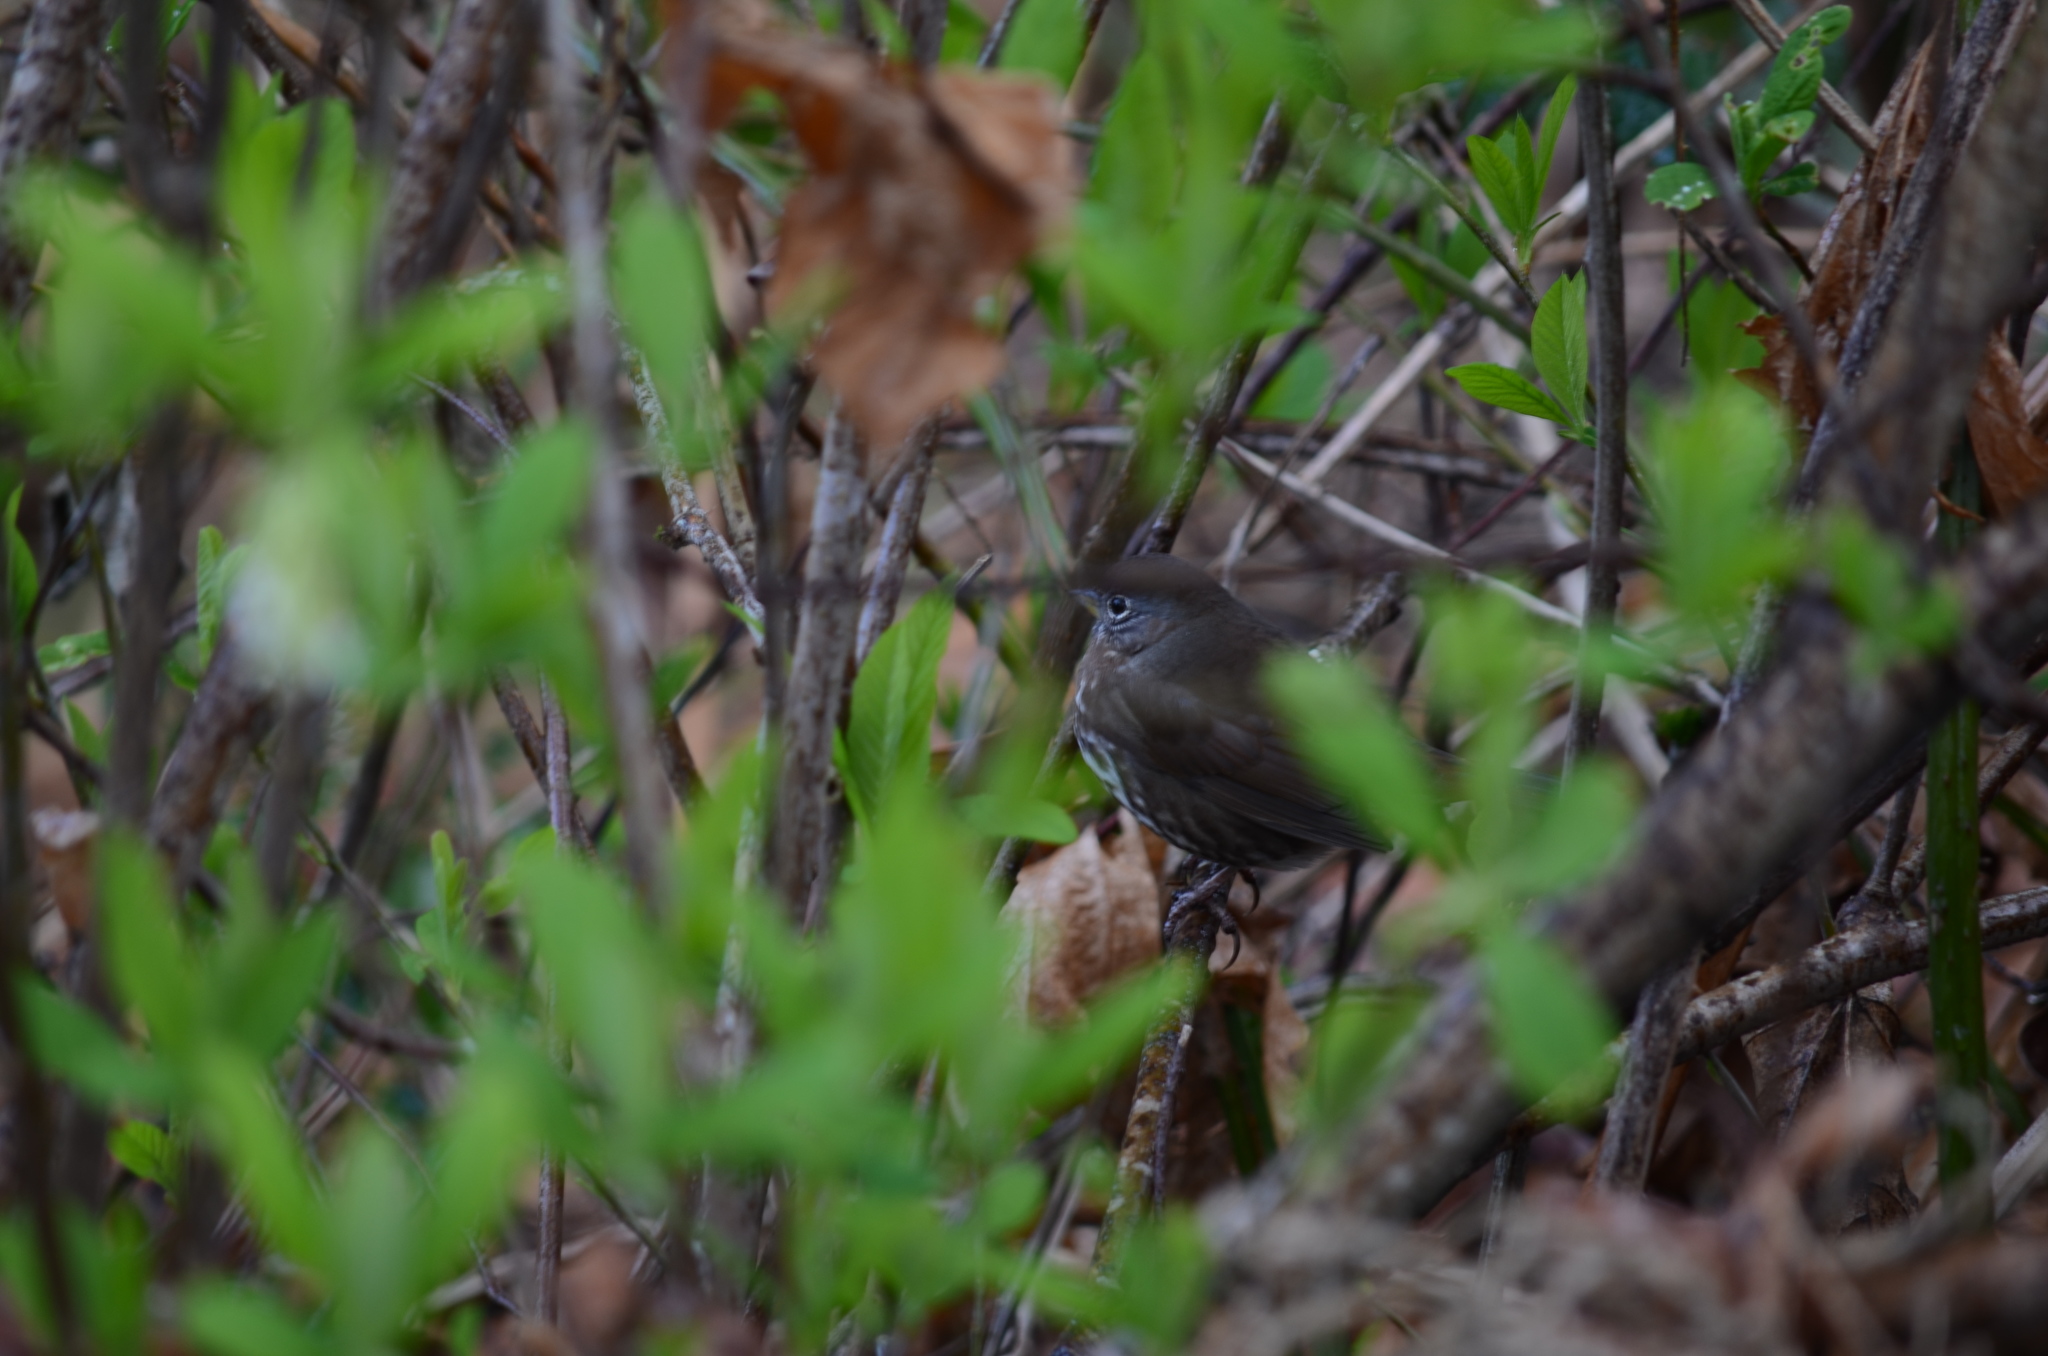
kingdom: Animalia
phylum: Chordata
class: Aves
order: Passeriformes
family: Passerellidae
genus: Passerella
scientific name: Passerella iliaca
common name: Fox sparrow
